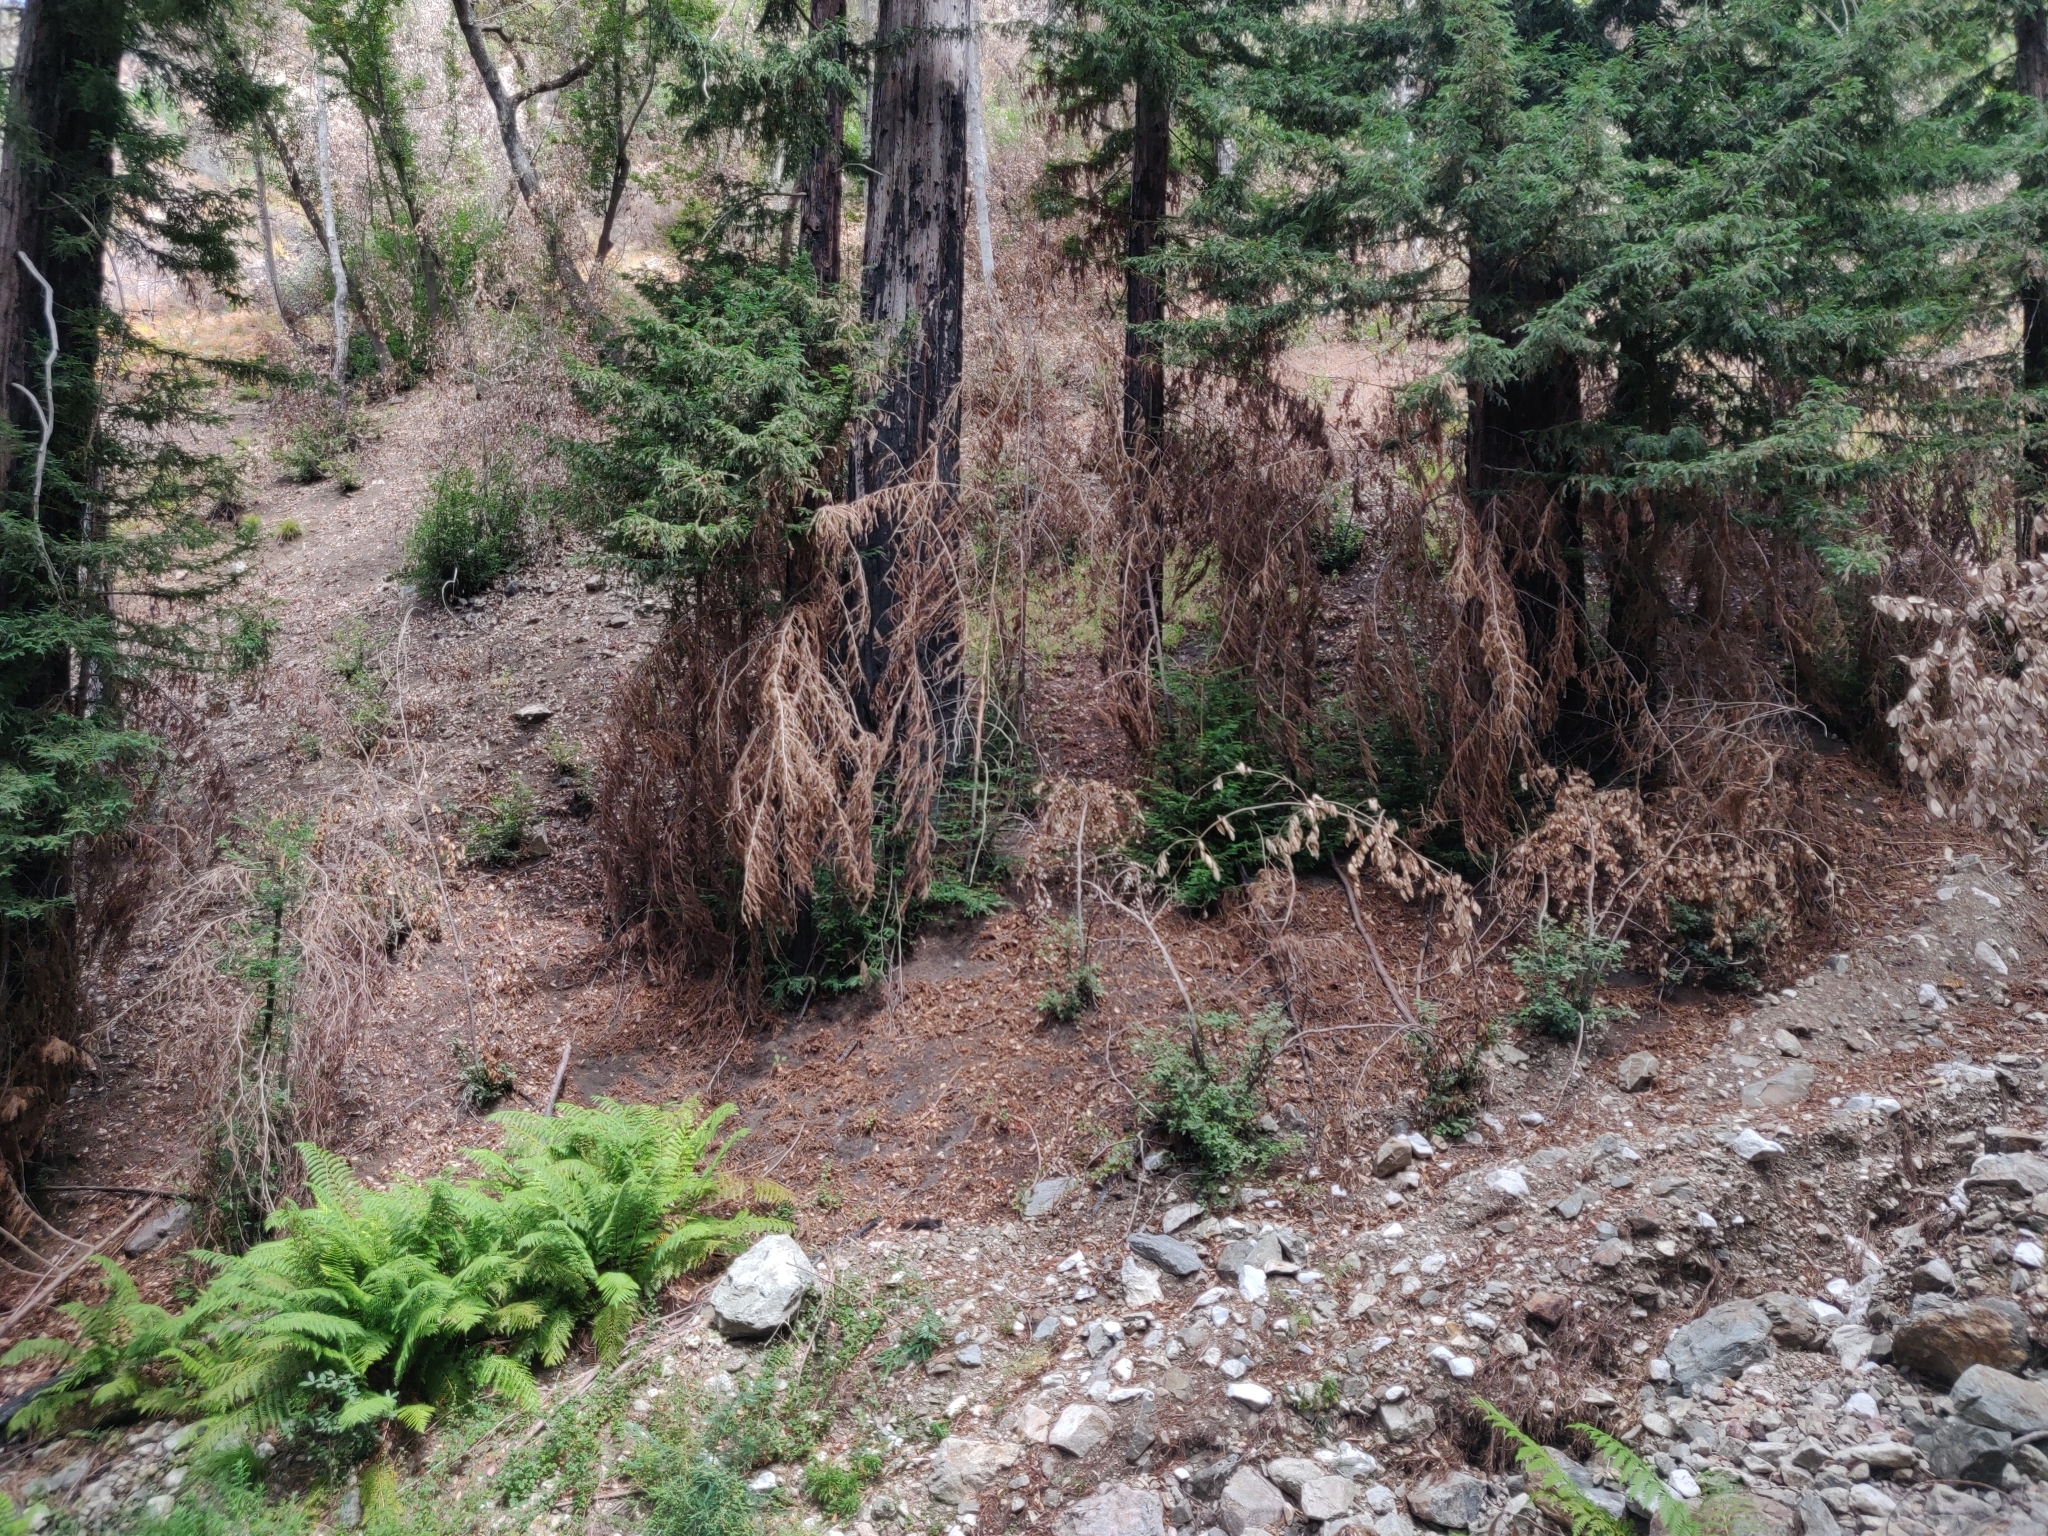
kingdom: Plantae
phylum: Tracheophyta
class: Polypodiopsida
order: Polypodiales
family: Blechnaceae
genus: Woodwardia
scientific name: Woodwardia fimbriata
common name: Giant chain fern
